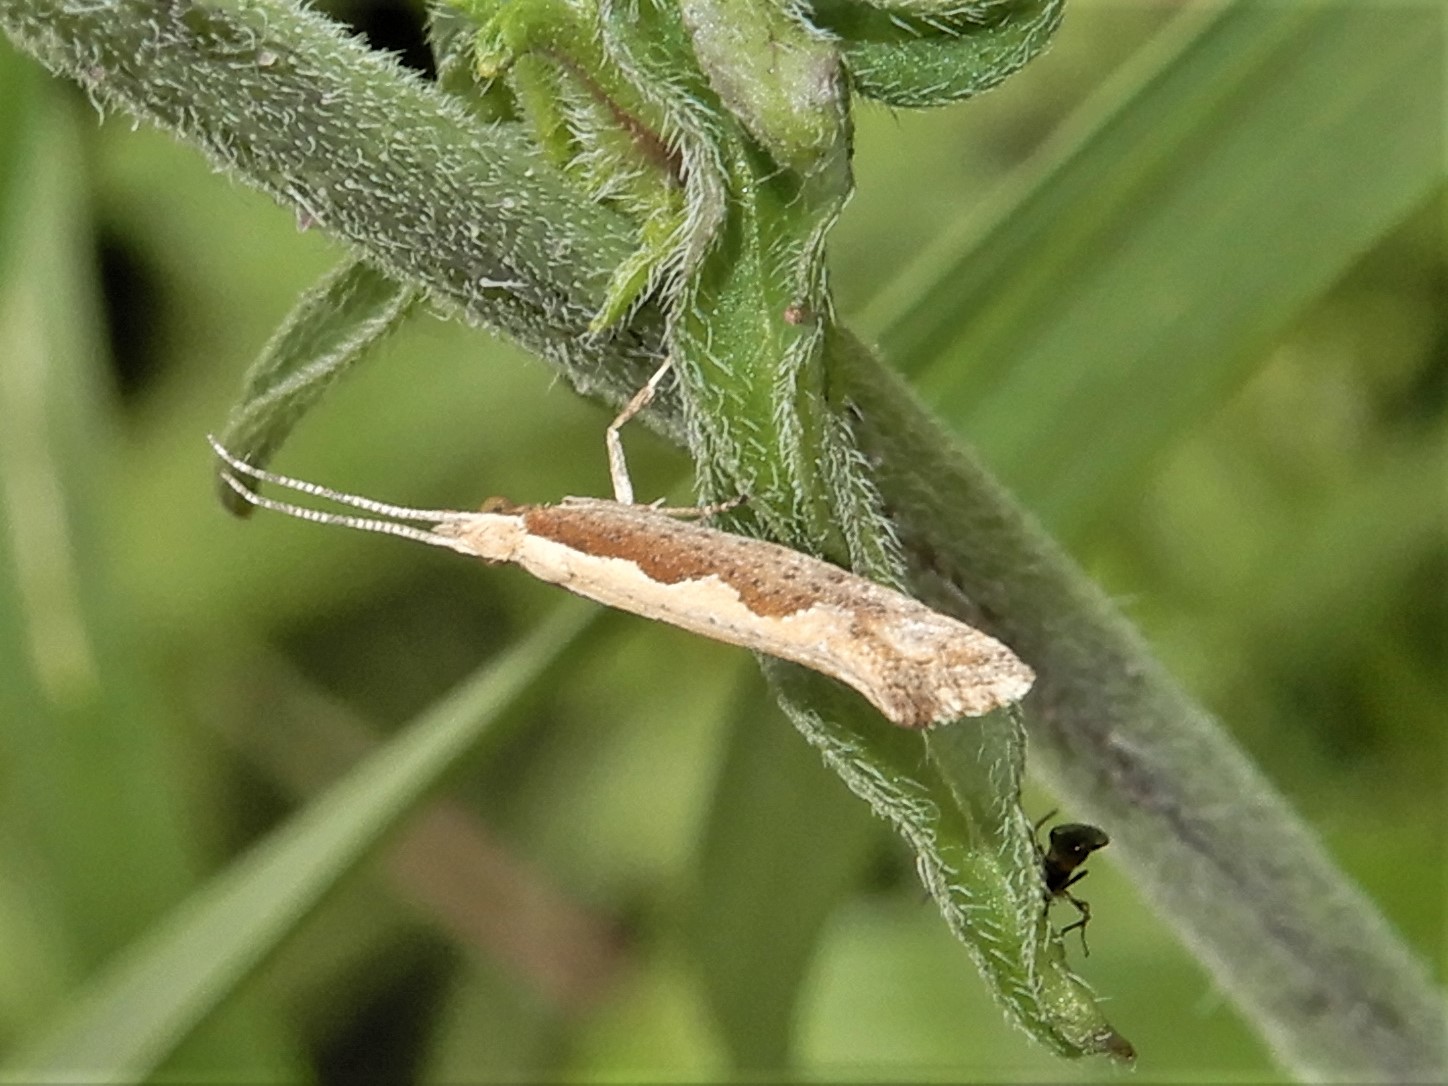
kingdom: Animalia
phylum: Arthropoda
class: Insecta
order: Lepidoptera
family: Plutellidae
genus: Plutella
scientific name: Plutella xylostella
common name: Diamond-back moth
